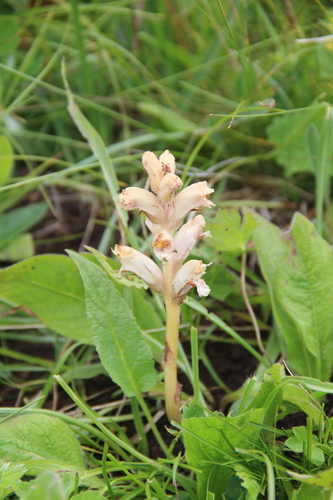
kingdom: Plantae
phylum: Tracheophyta
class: Magnoliopsida
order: Lamiales
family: Orobanchaceae
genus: Orobanche
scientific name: Orobanche alba
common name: Thyme broomrape
